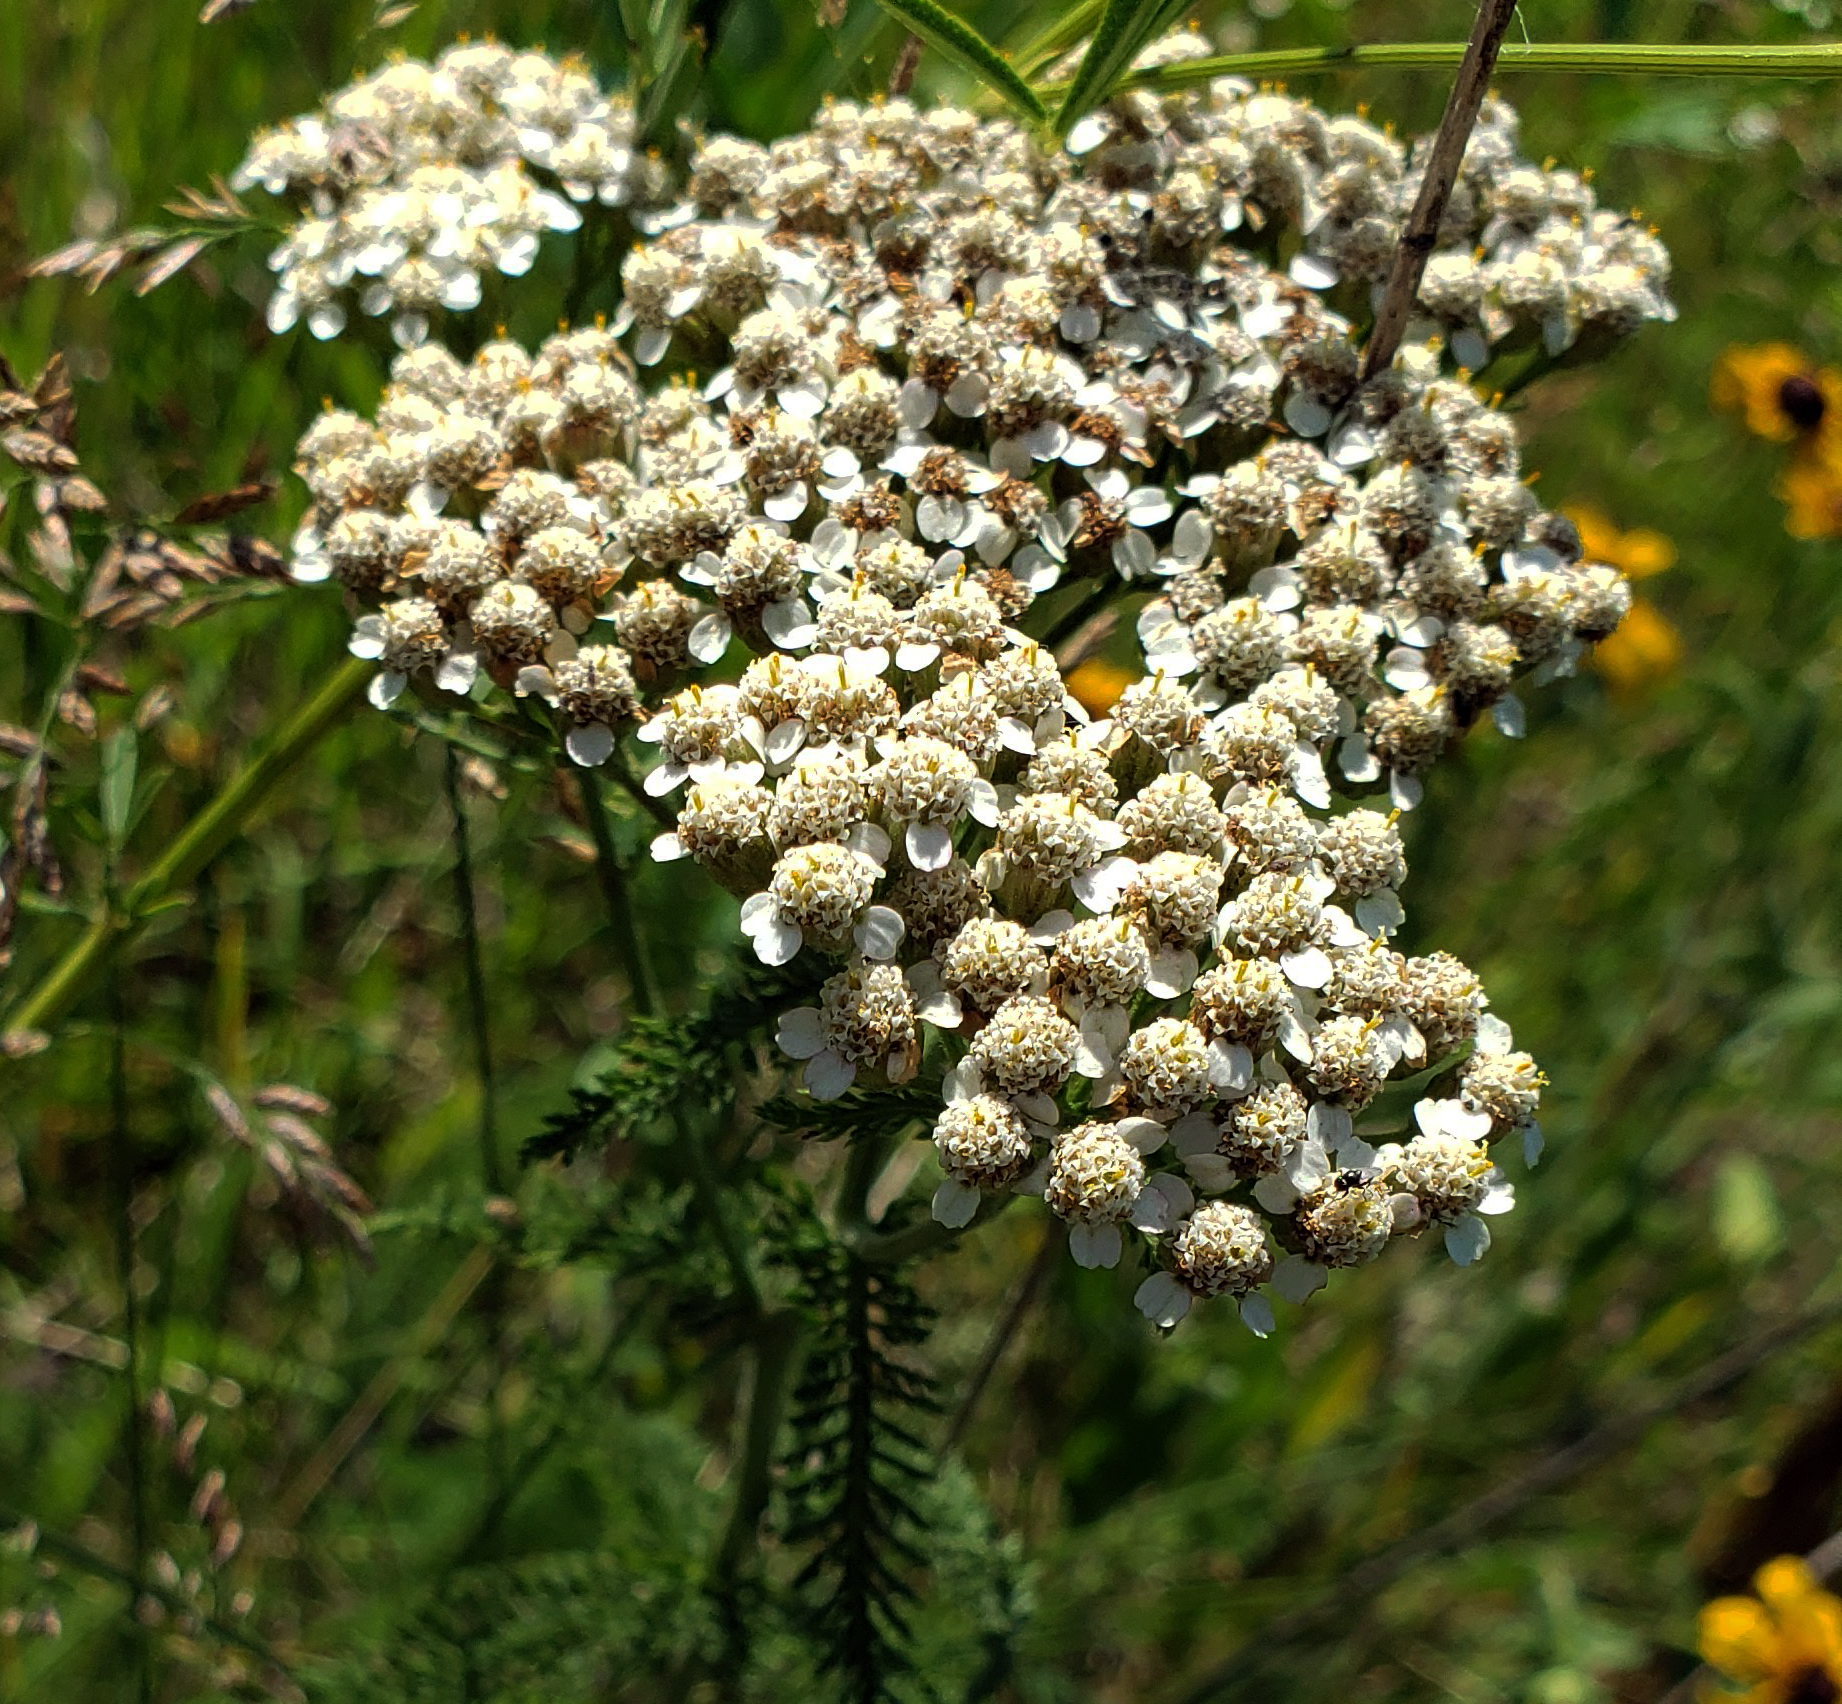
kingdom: Plantae
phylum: Tracheophyta
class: Magnoliopsida
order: Asterales
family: Asteraceae
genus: Achillea
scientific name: Achillea millefolium
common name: Yarrow
